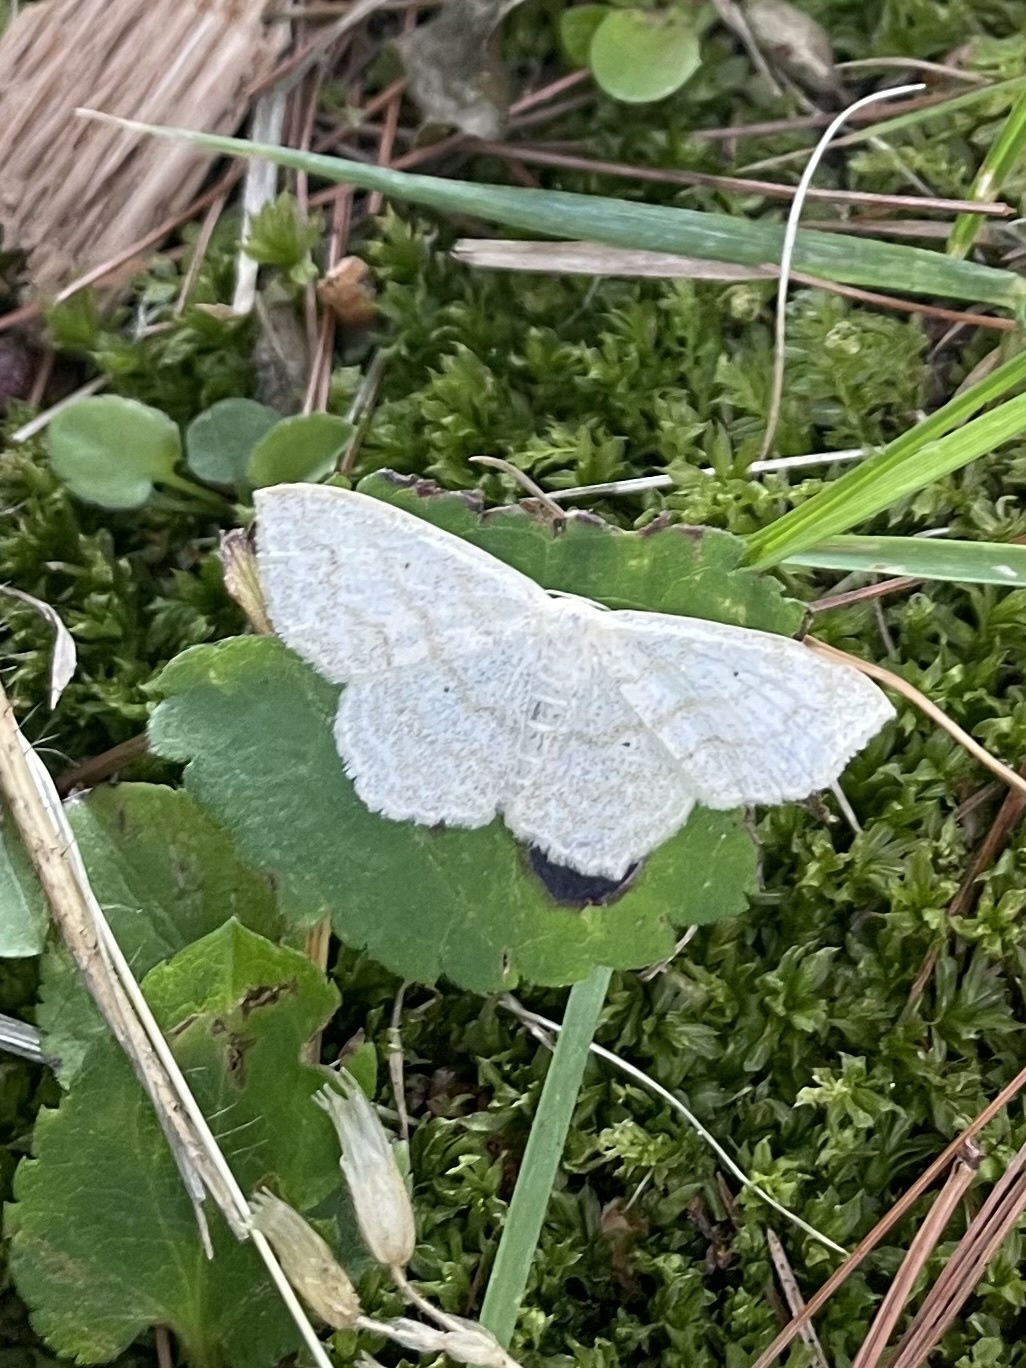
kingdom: Animalia
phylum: Arthropoda
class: Insecta
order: Lepidoptera
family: Geometridae
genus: Scopula
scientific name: Scopula limboundata
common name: Large lace border
